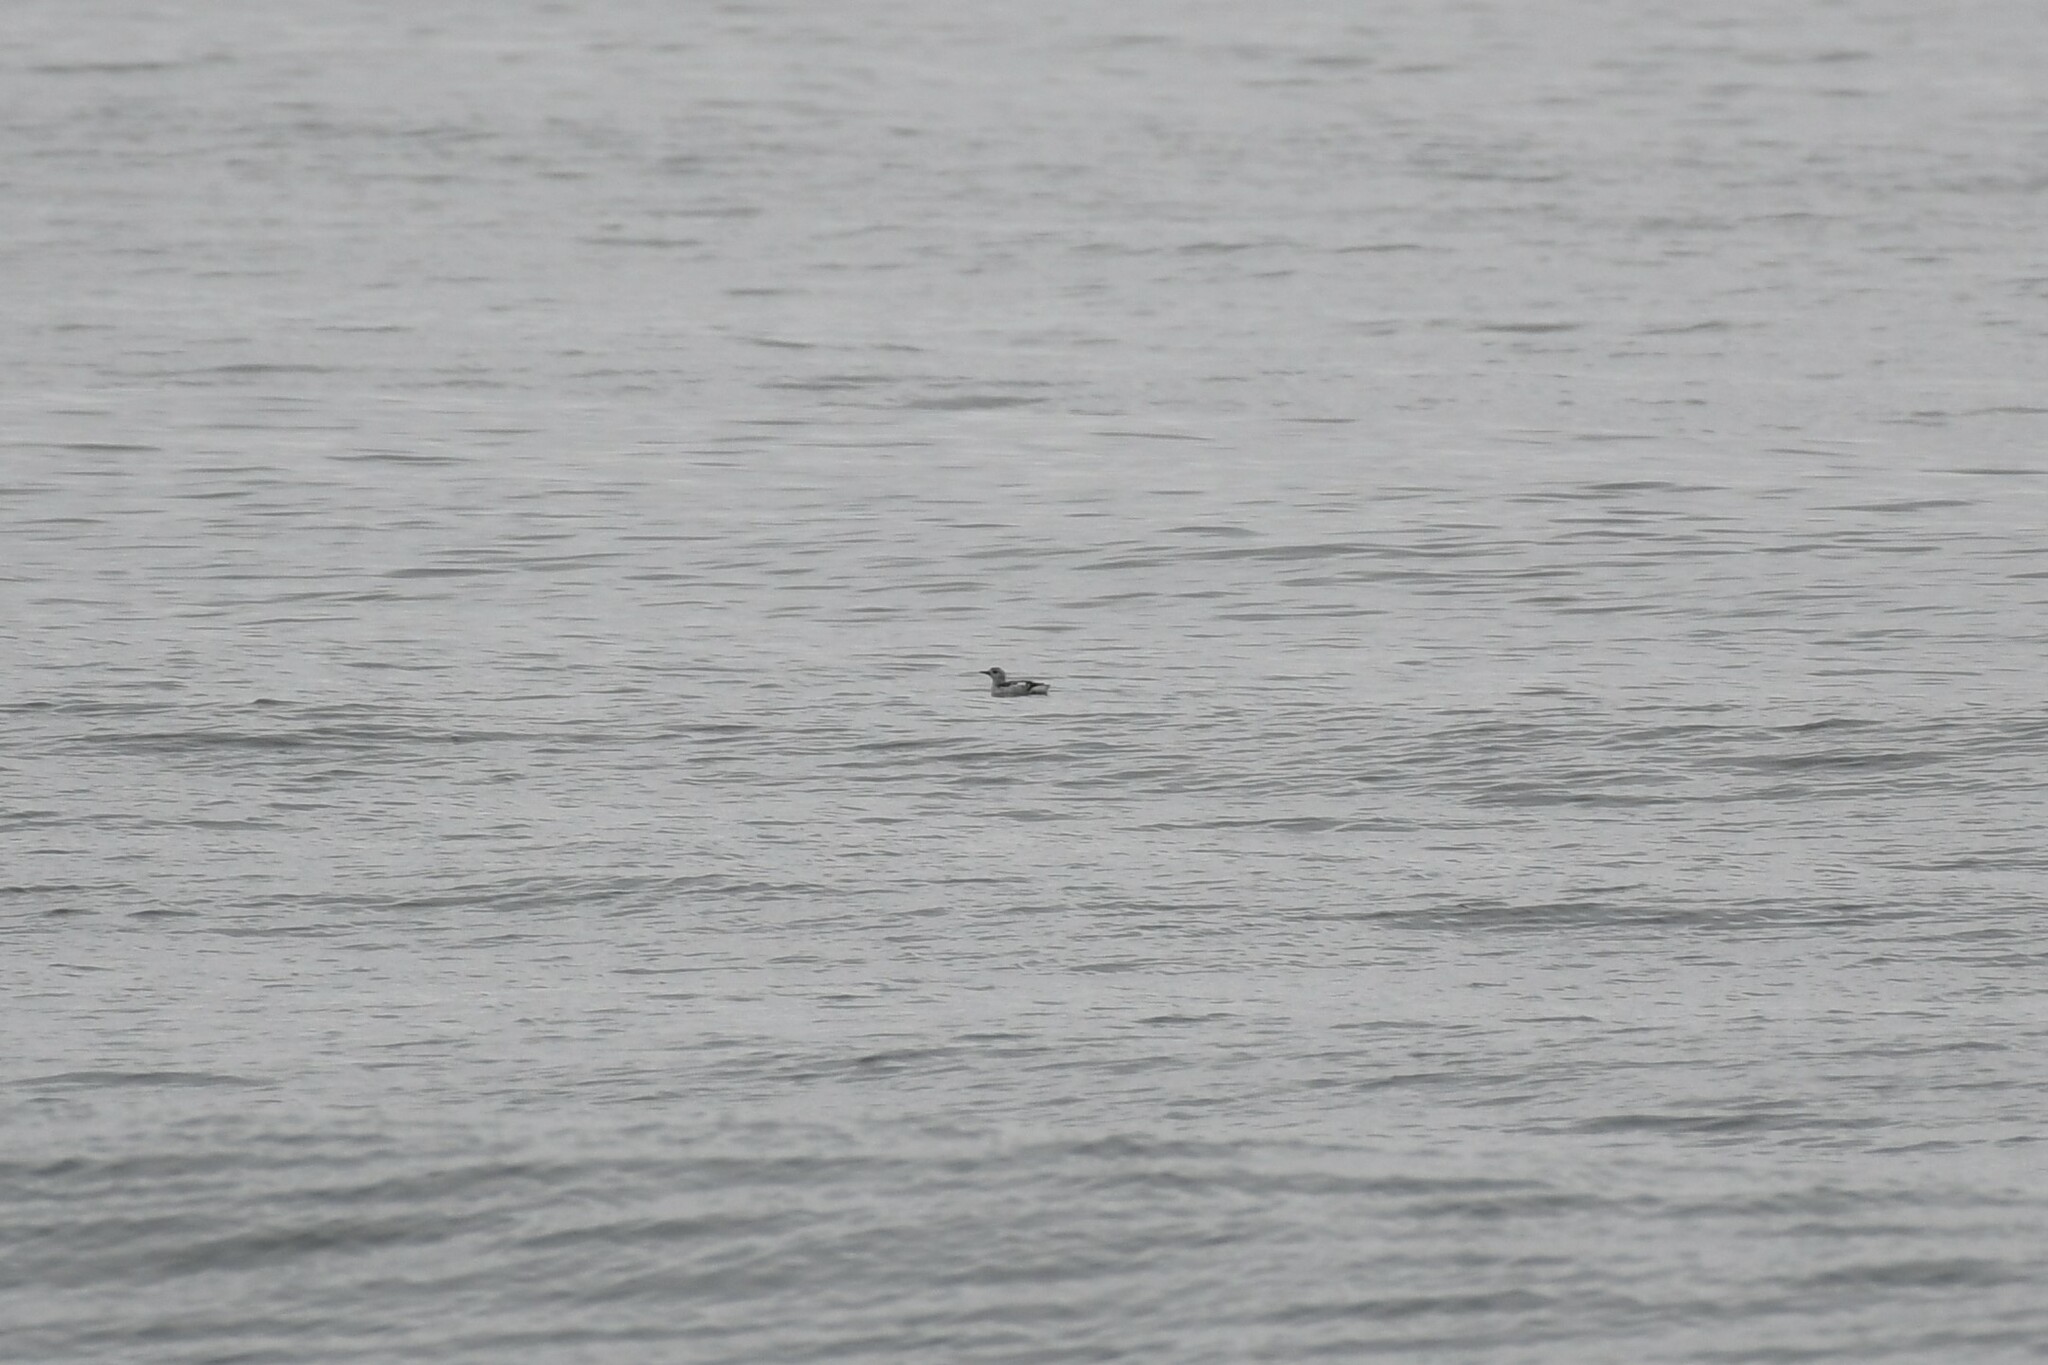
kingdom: Animalia
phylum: Chordata
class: Aves
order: Charadriiformes
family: Alcidae
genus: Cepphus
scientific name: Cepphus grylle
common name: Black guillemot
